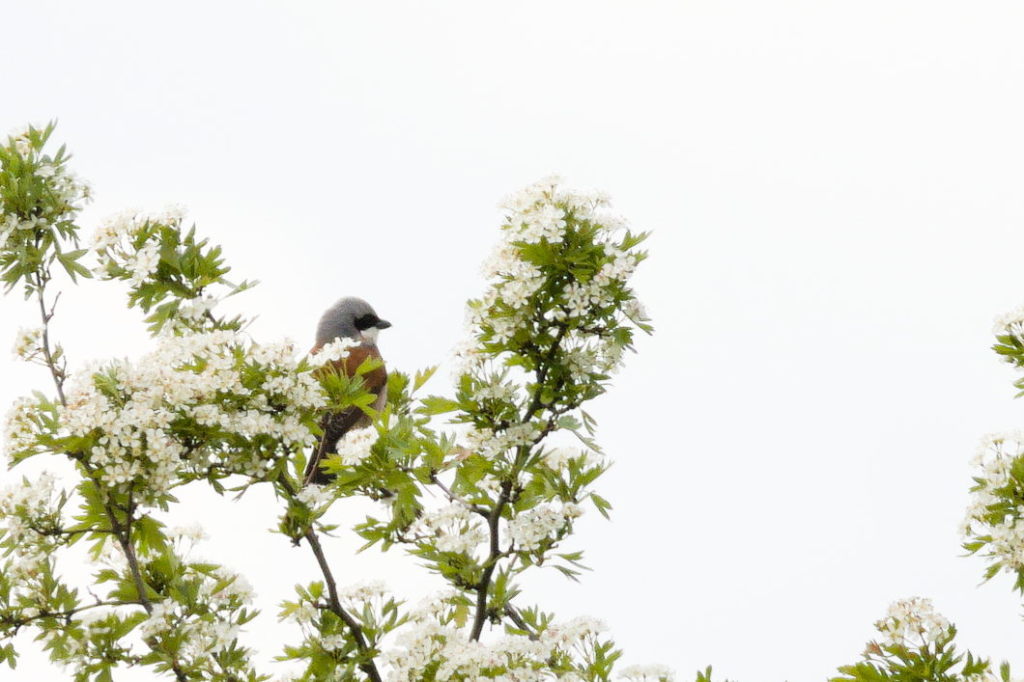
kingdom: Animalia
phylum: Chordata
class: Aves
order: Passeriformes
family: Laniidae
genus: Lanius
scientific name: Lanius collurio
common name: Red-backed shrike
